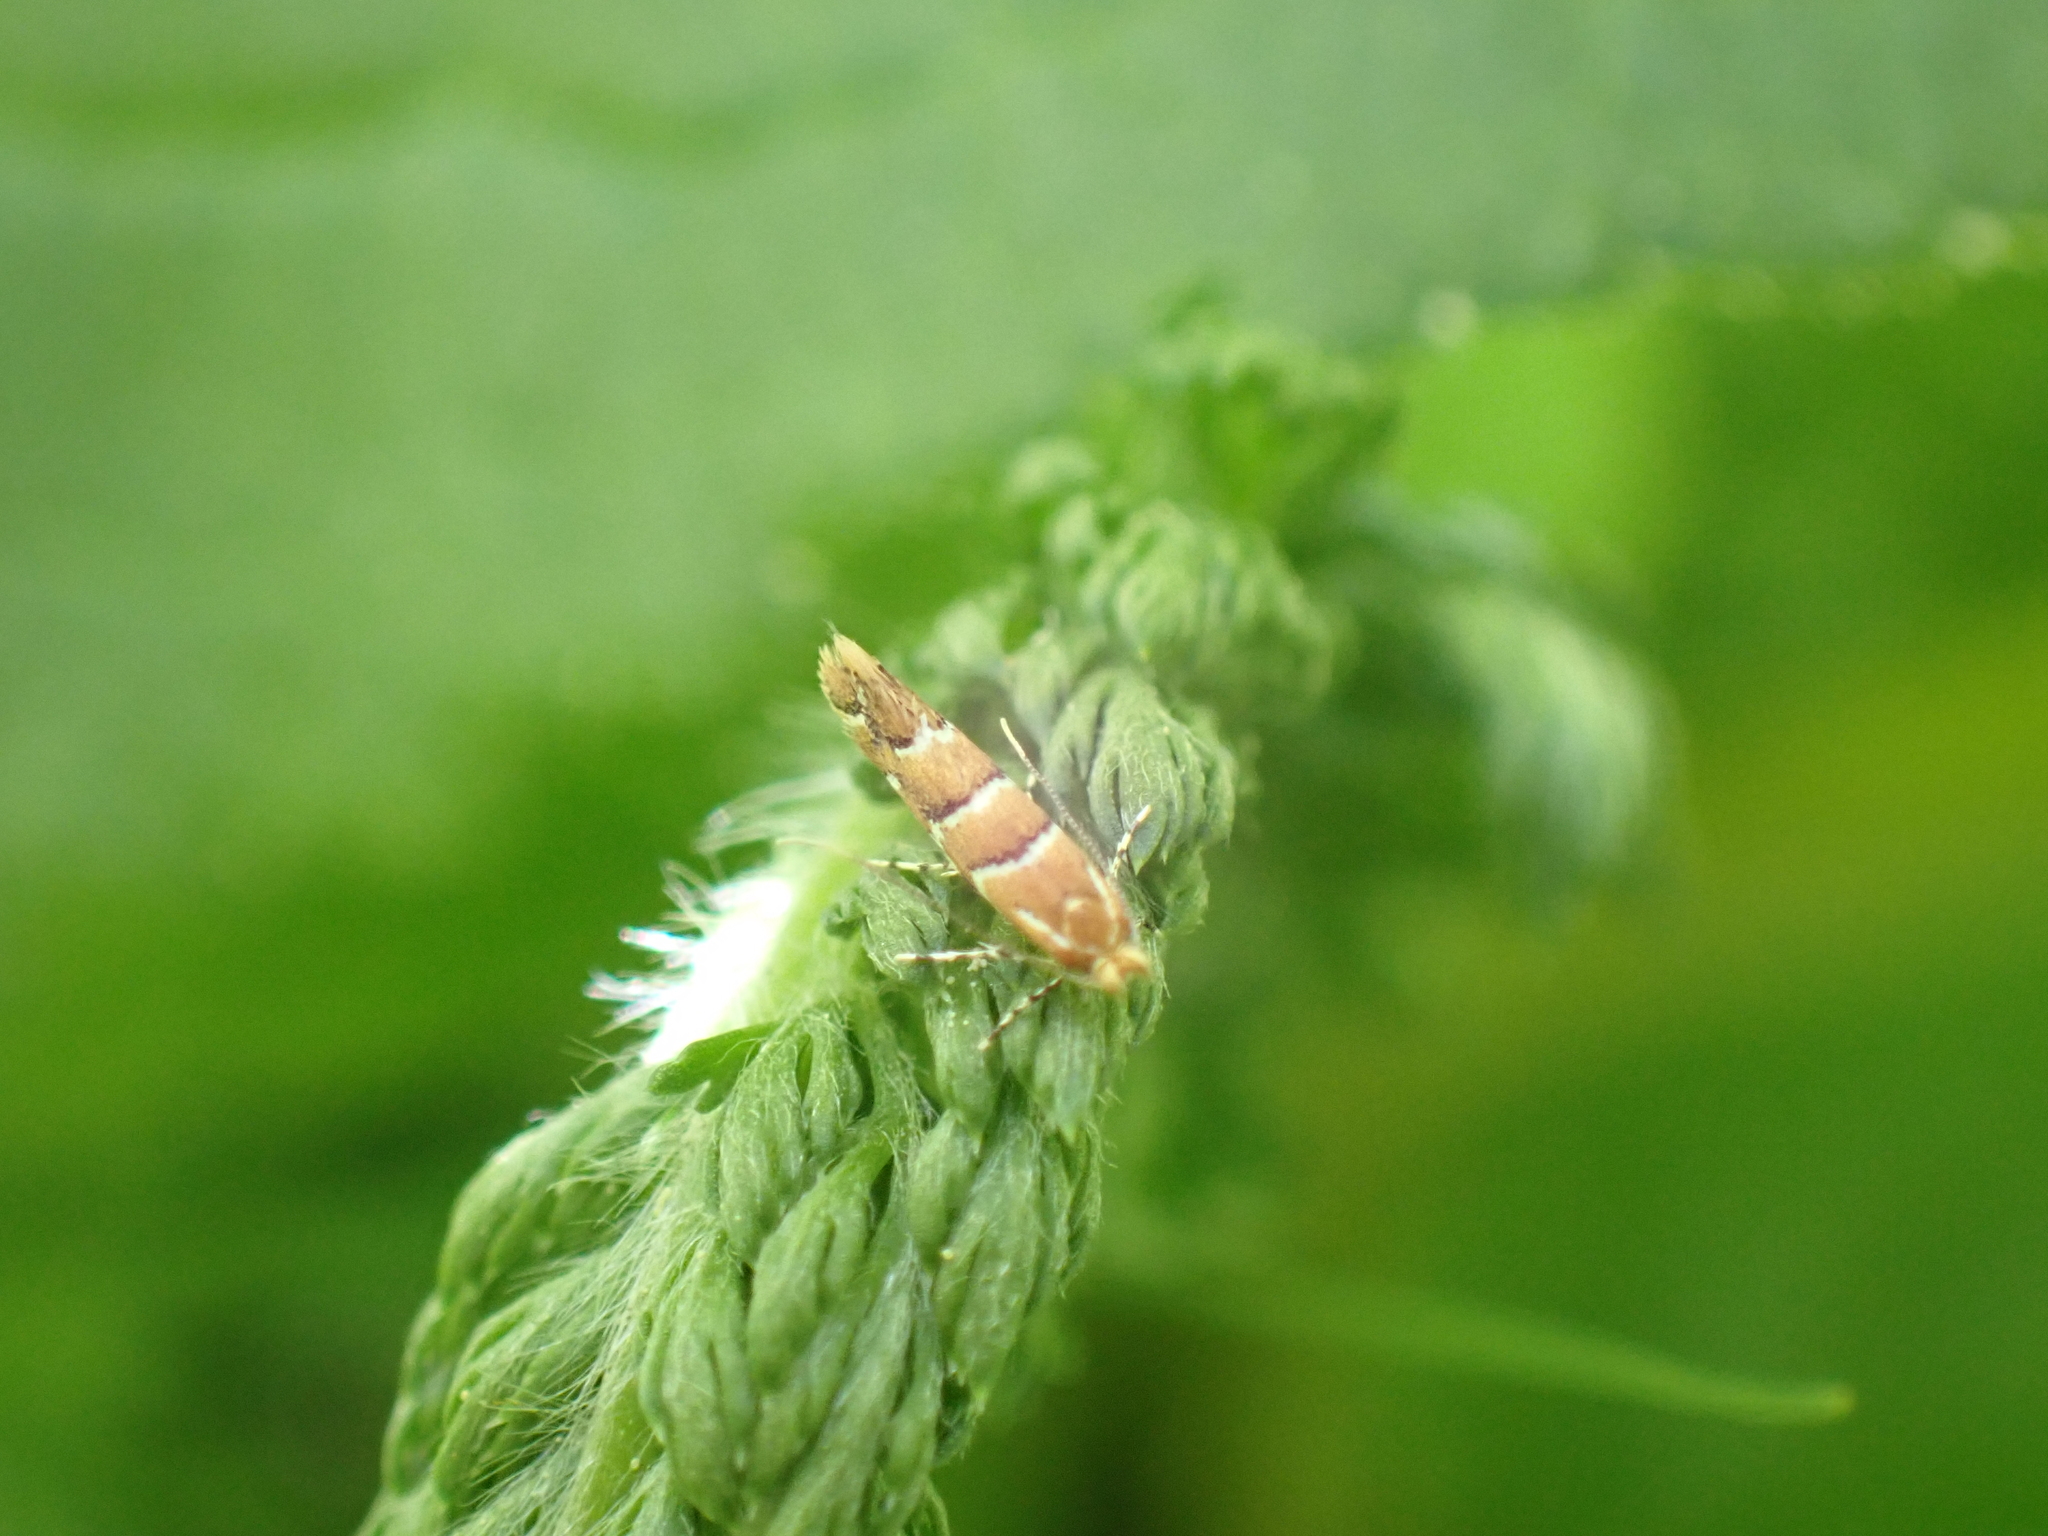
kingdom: Animalia
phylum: Arthropoda
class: Insecta
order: Lepidoptera
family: Gracillariidae
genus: Cameraria
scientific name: Cameraria ohridella
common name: Horse-chestnut leaf-miner
